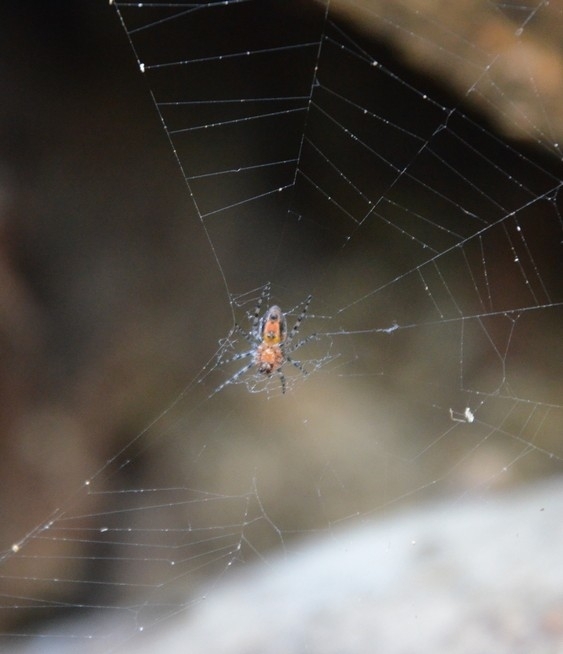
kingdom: Animalia
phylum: Arthropoda
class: Arachnida
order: Araneae
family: Araneidae
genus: Alpaida
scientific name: Alpaida gallardoi
